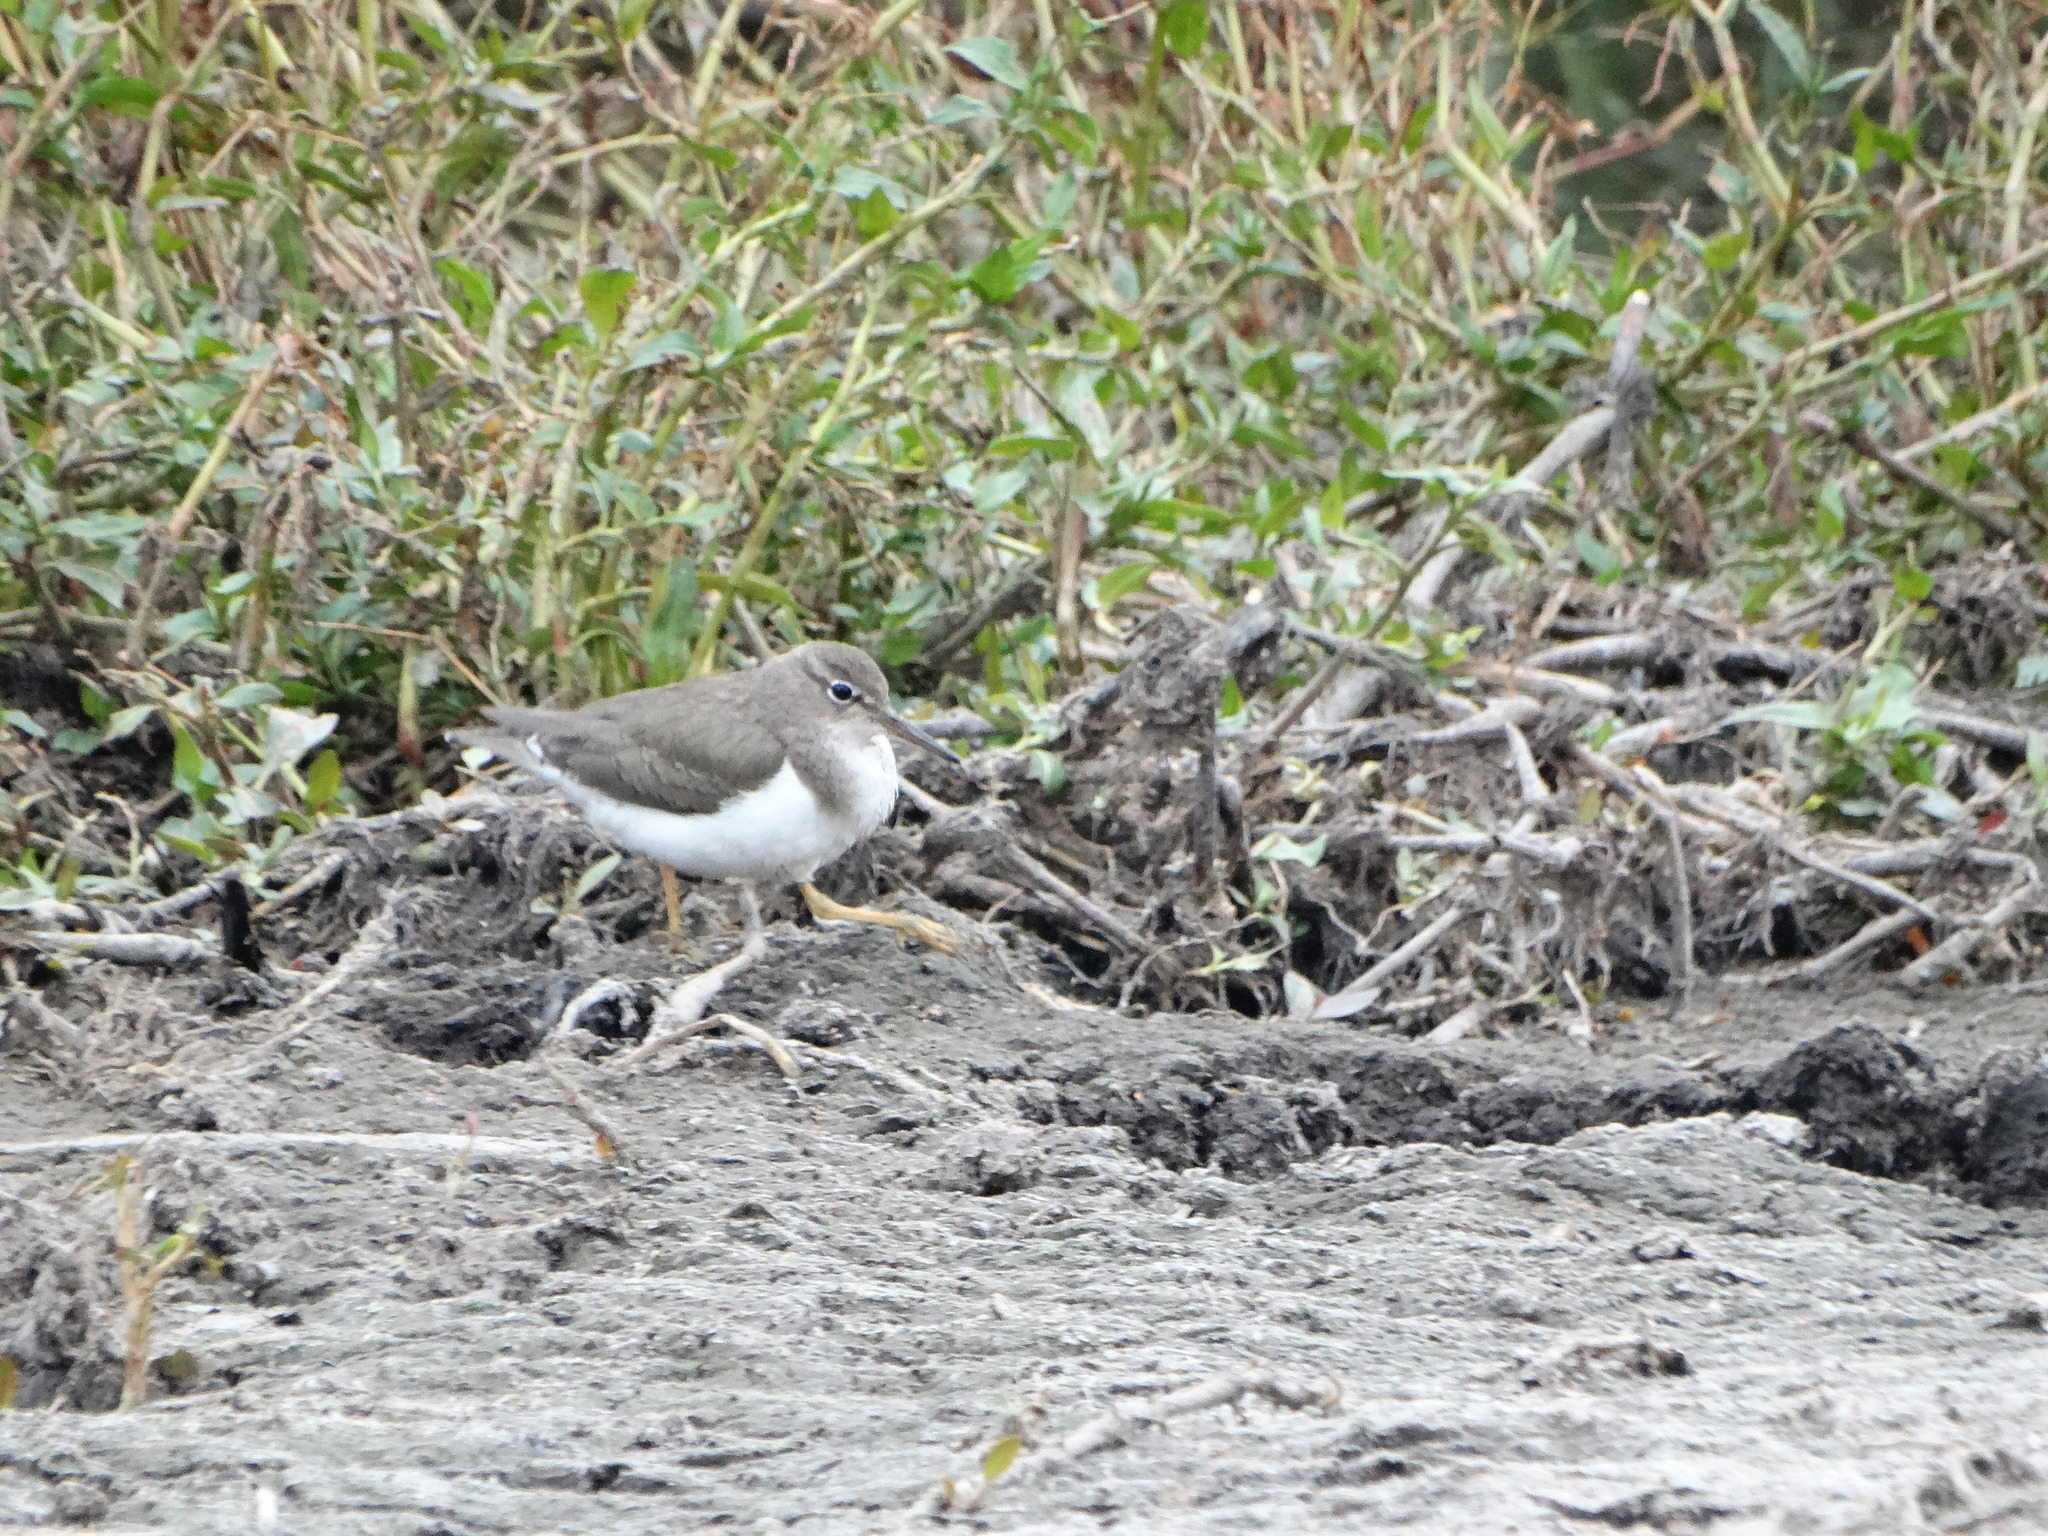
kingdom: Animalia
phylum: Chordata
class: Aves
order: Charadriiformes
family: Scolopacidae
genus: Actitis
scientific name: Actitis macularius
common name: Spotted sandpiper
